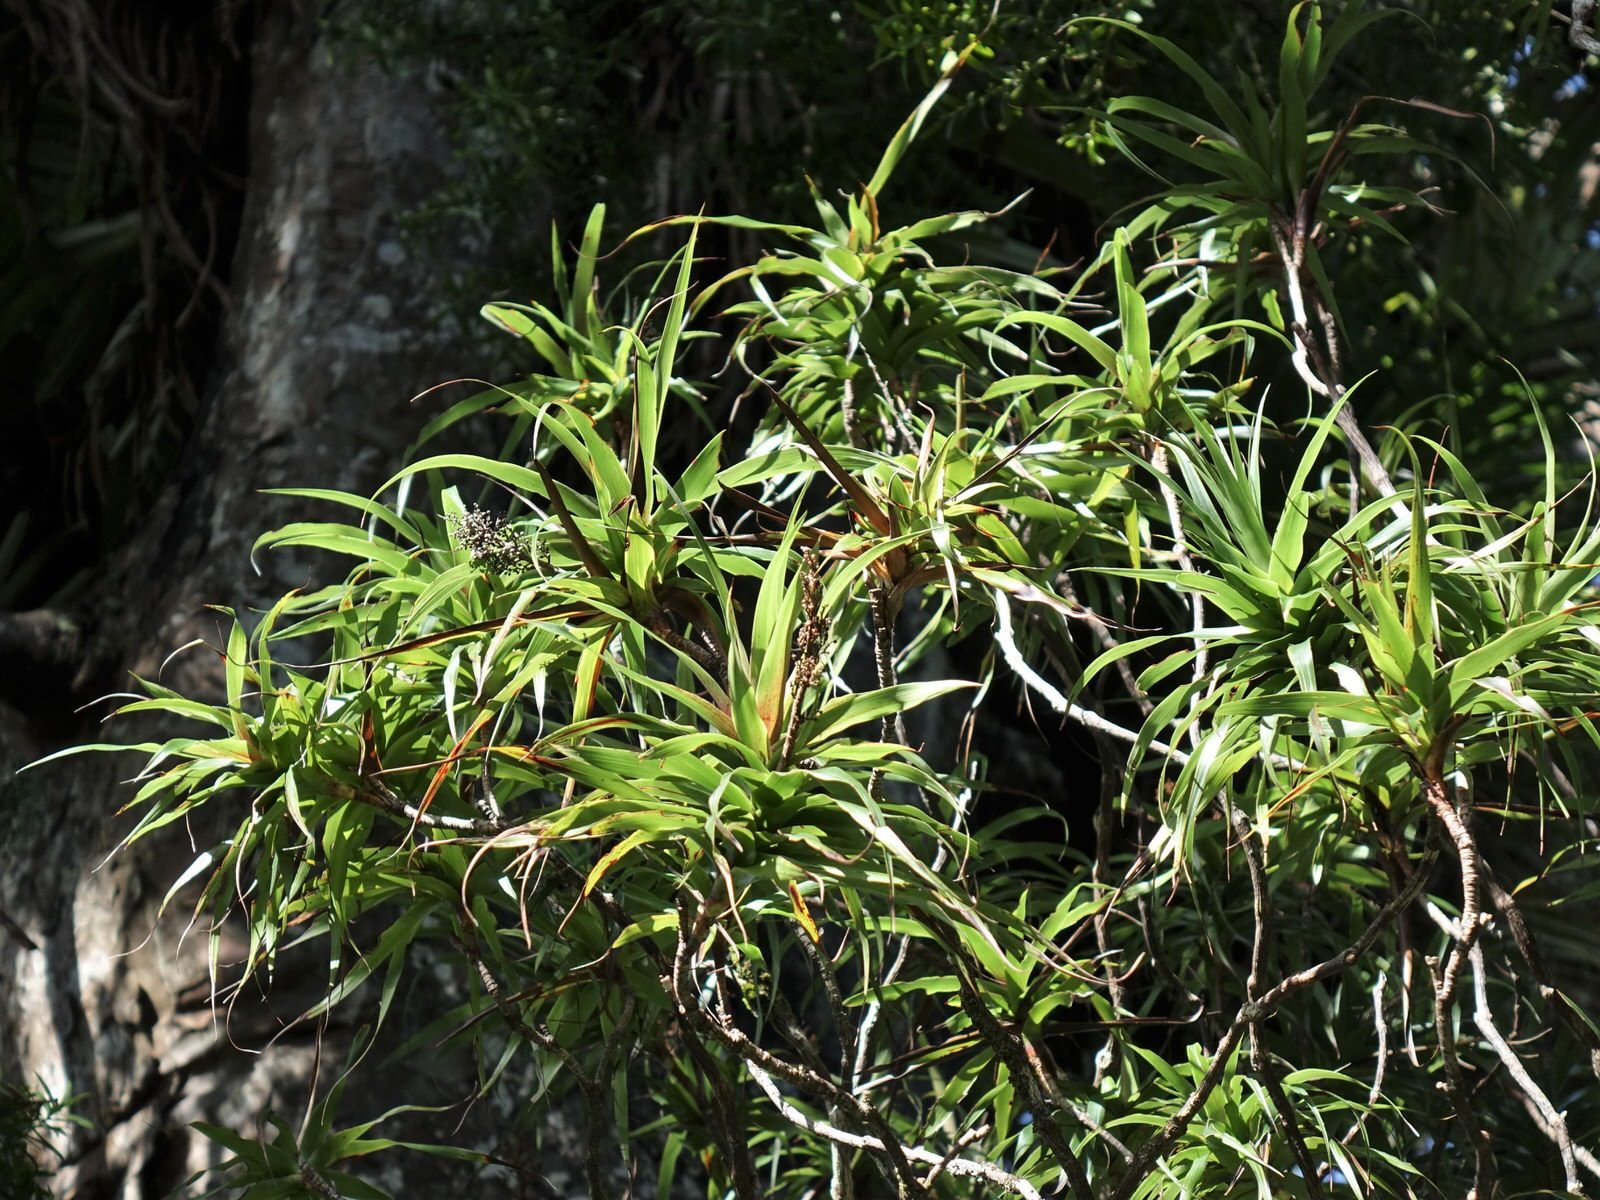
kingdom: Plantae
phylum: Tracheophyta
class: Magnoliopsida
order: Ericales
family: Ericaceae
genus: Dracophyllum
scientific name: Dracophyllum latifolium
